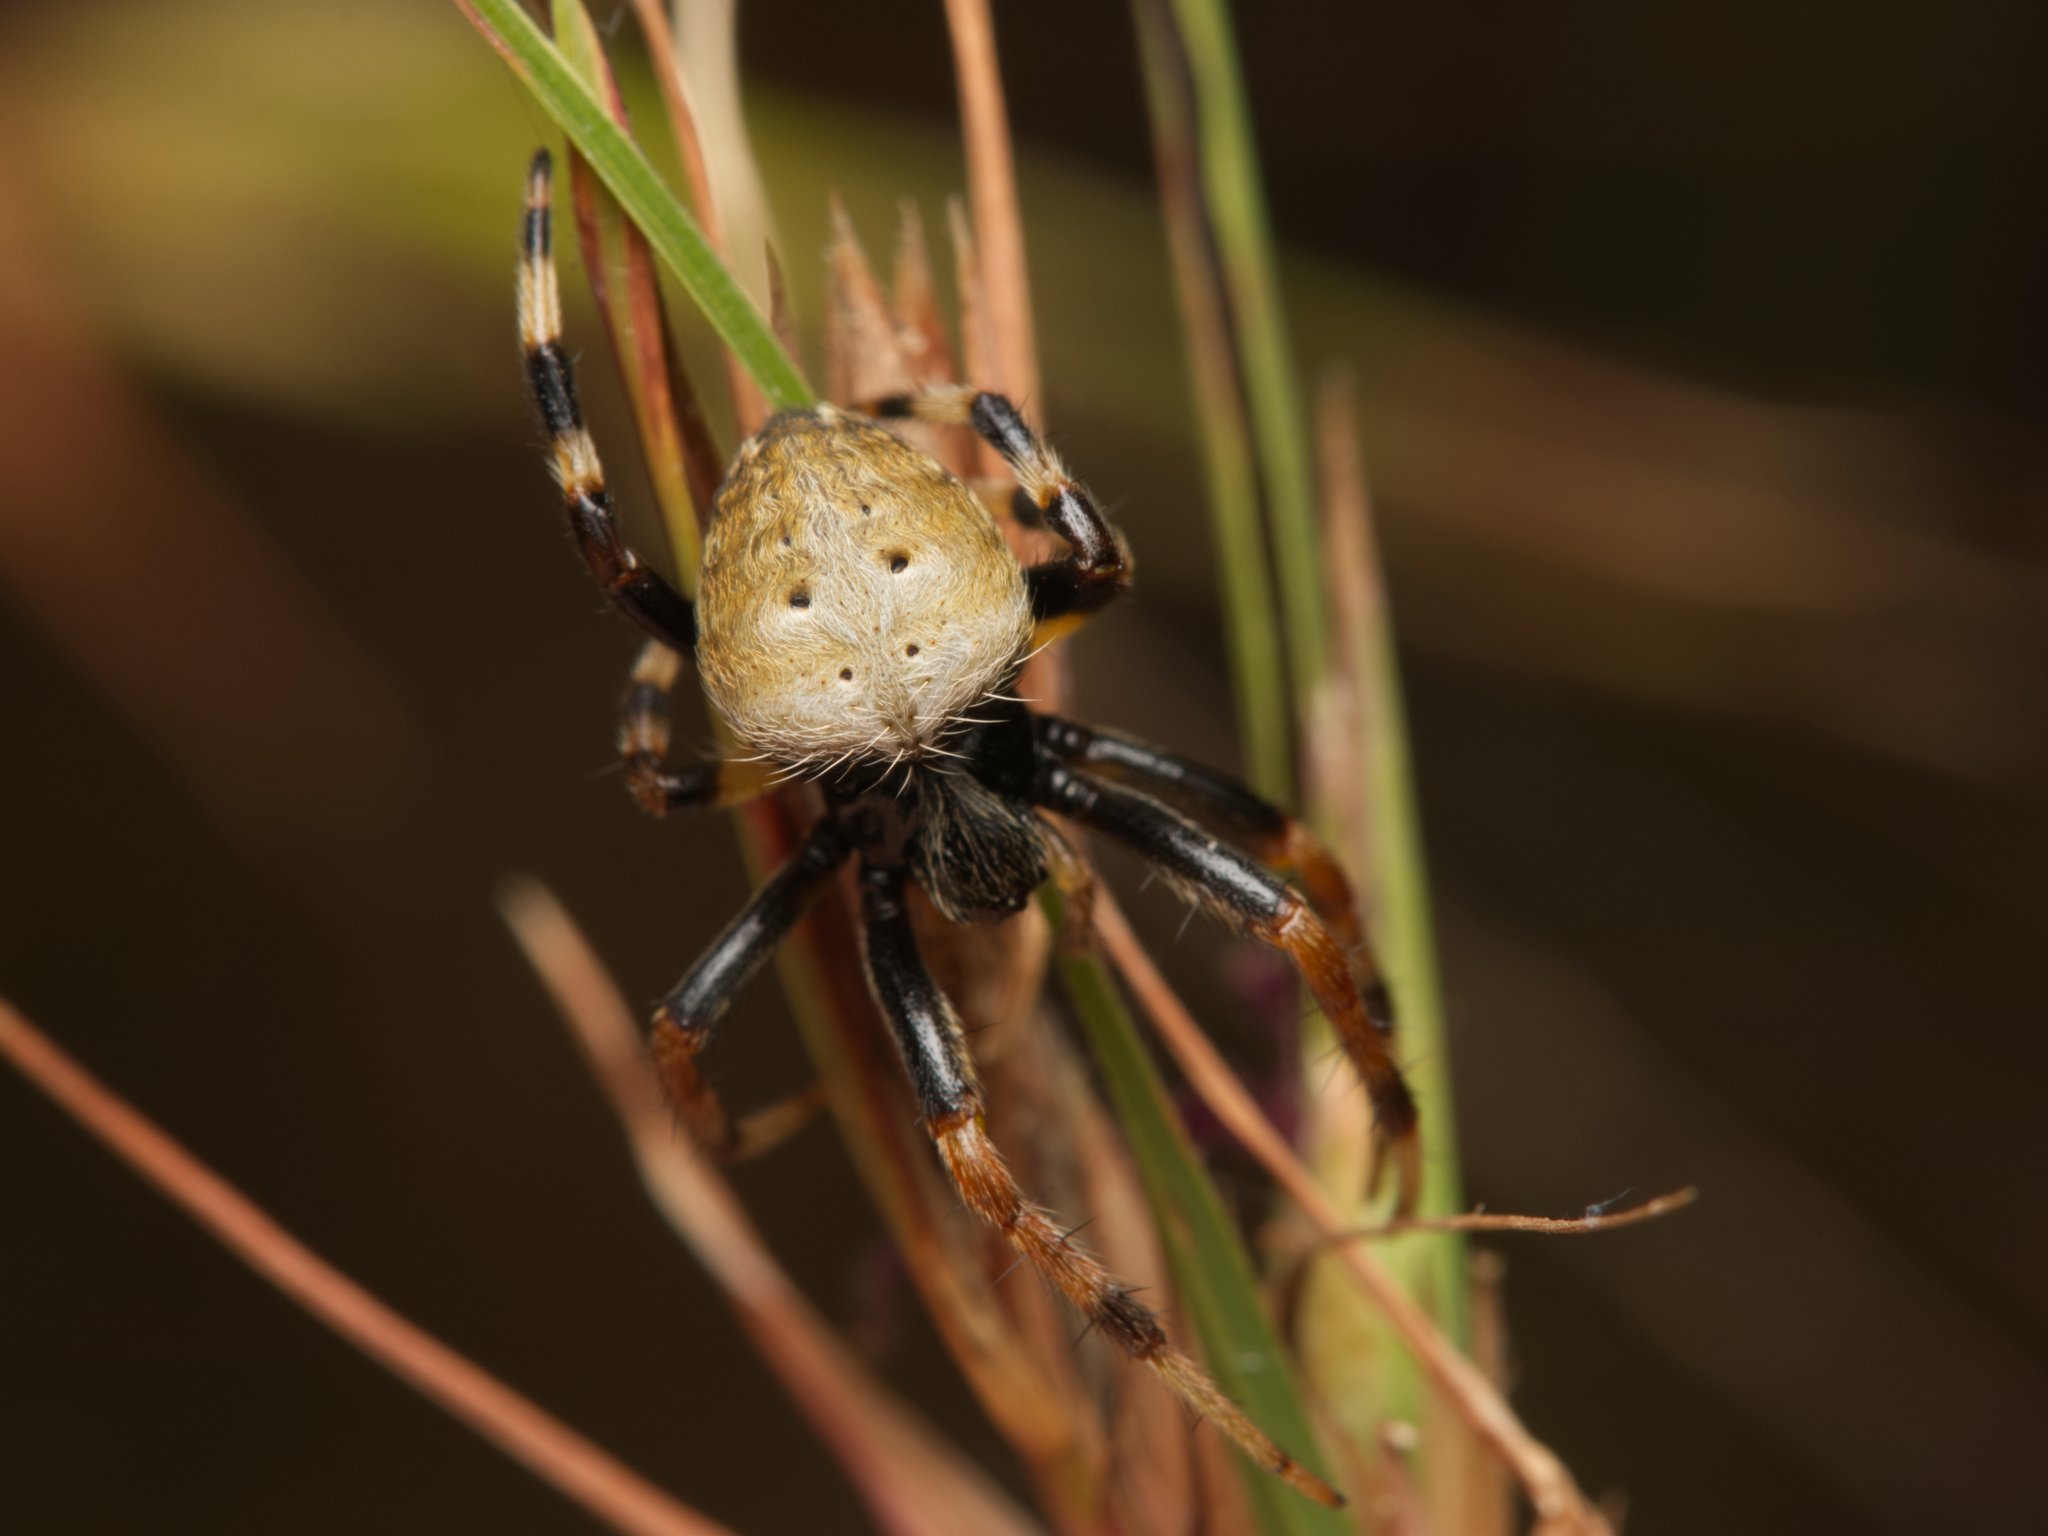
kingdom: Animalia
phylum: Arthropoda
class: Arachnida
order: Araneae
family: Araneidae
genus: Mangrovia
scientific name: Mangrovia albida
